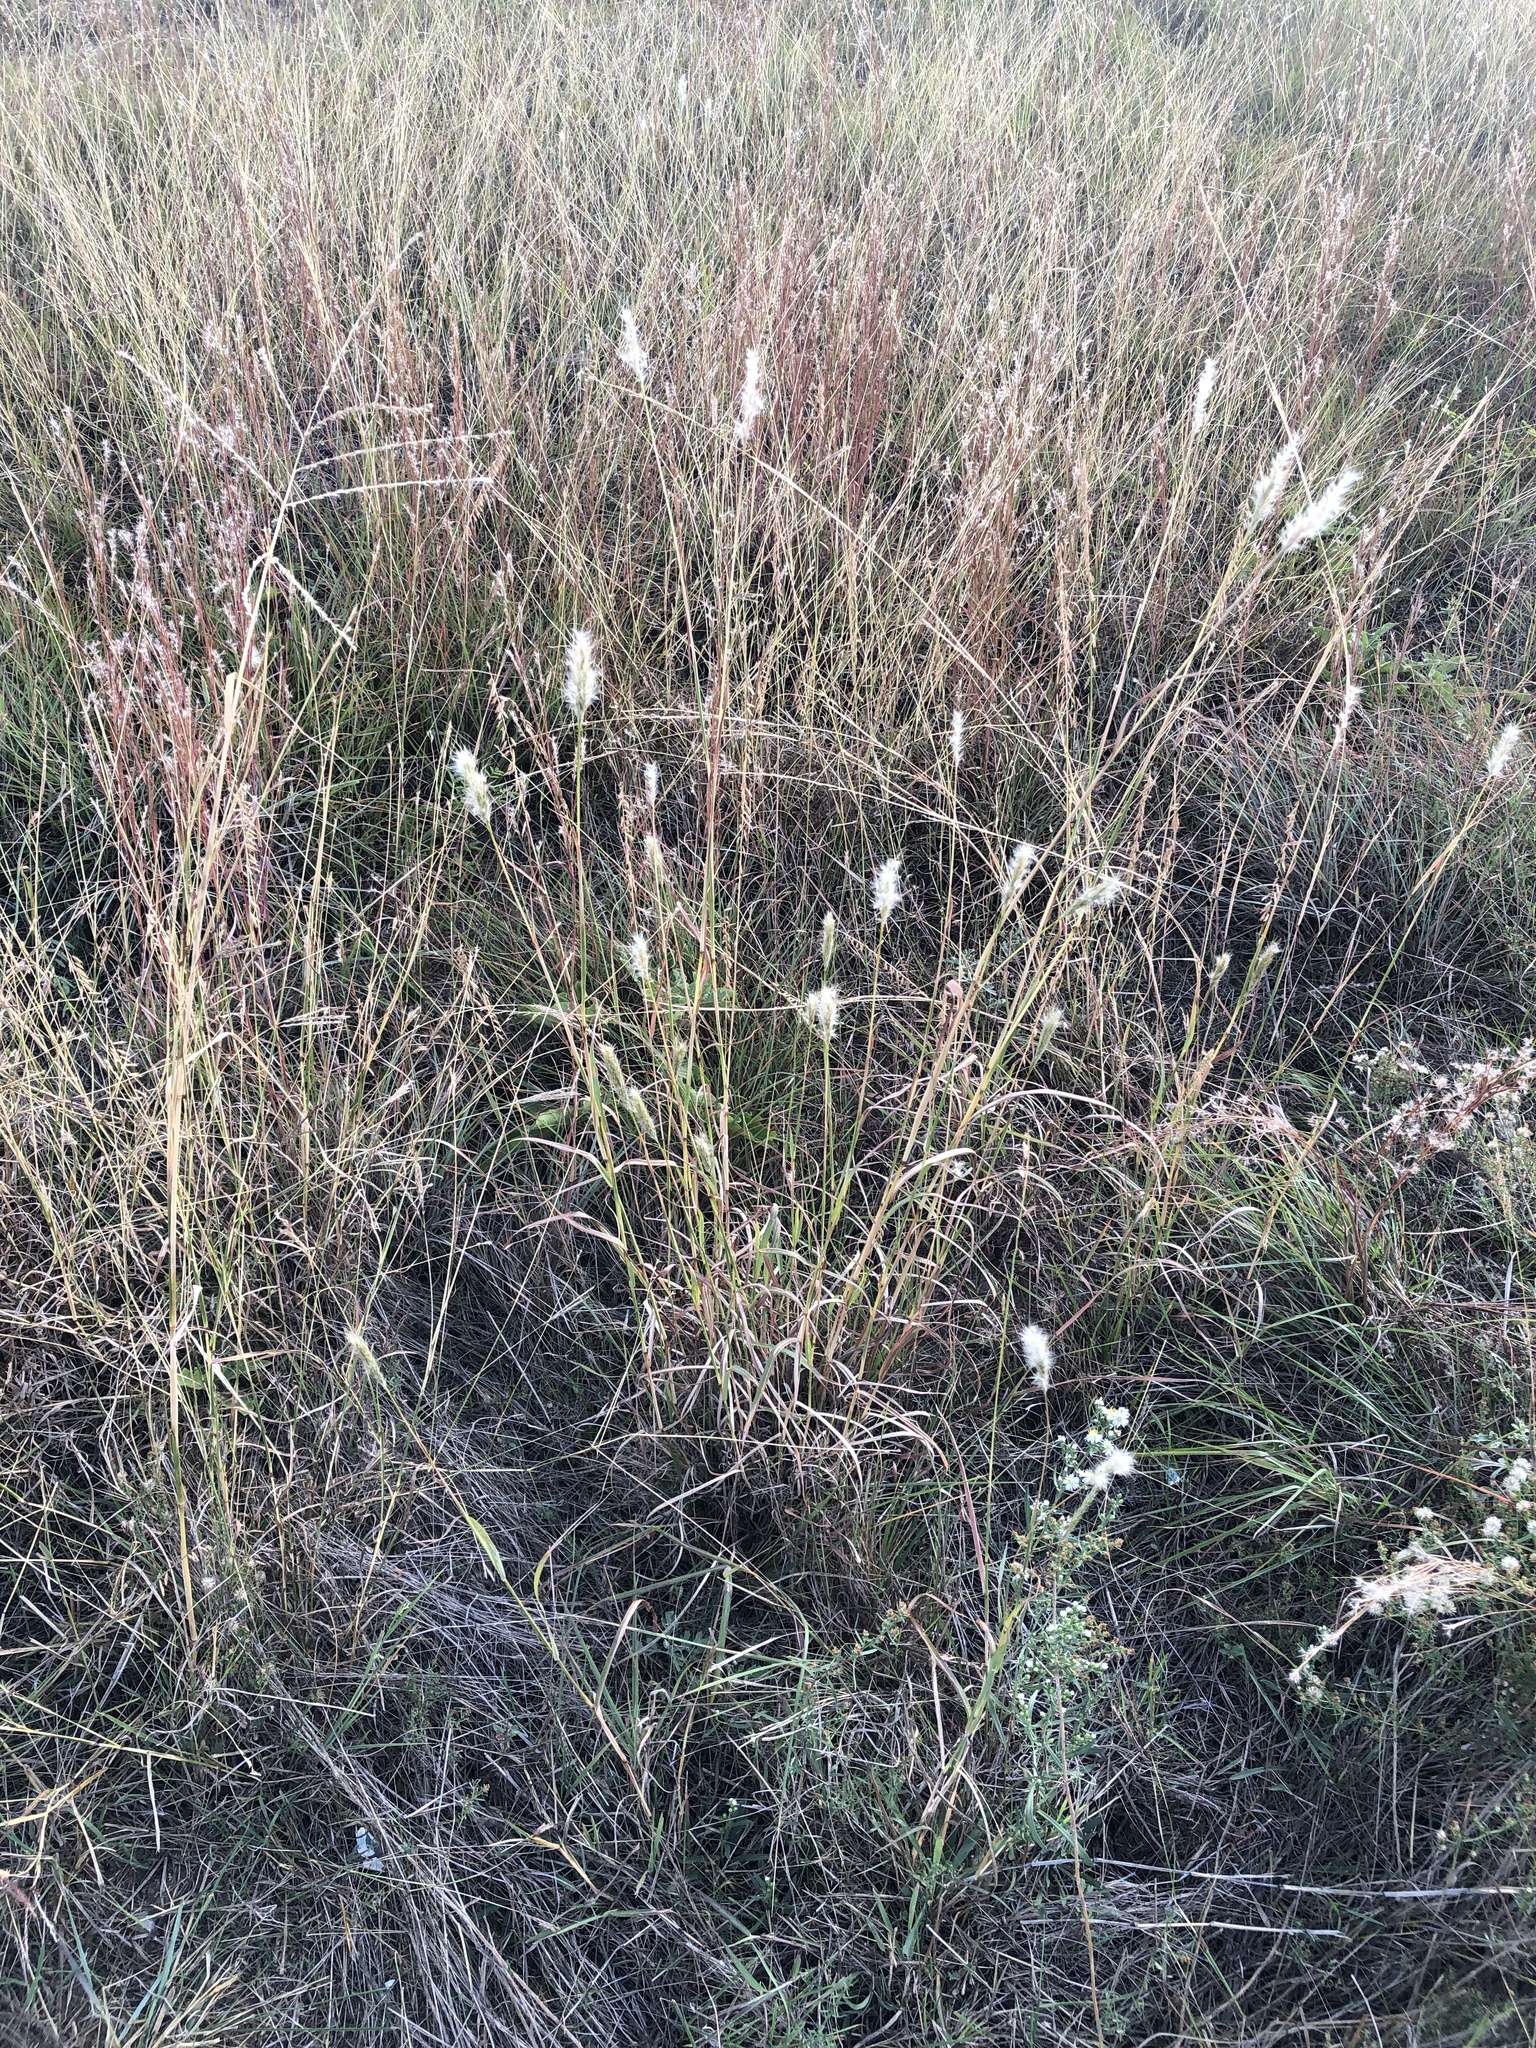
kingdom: Plantae
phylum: Tracheophyta
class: Liliopsida
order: Poales
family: Poaceae
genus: Bothriochloa
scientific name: Bothriochloa torreyana
